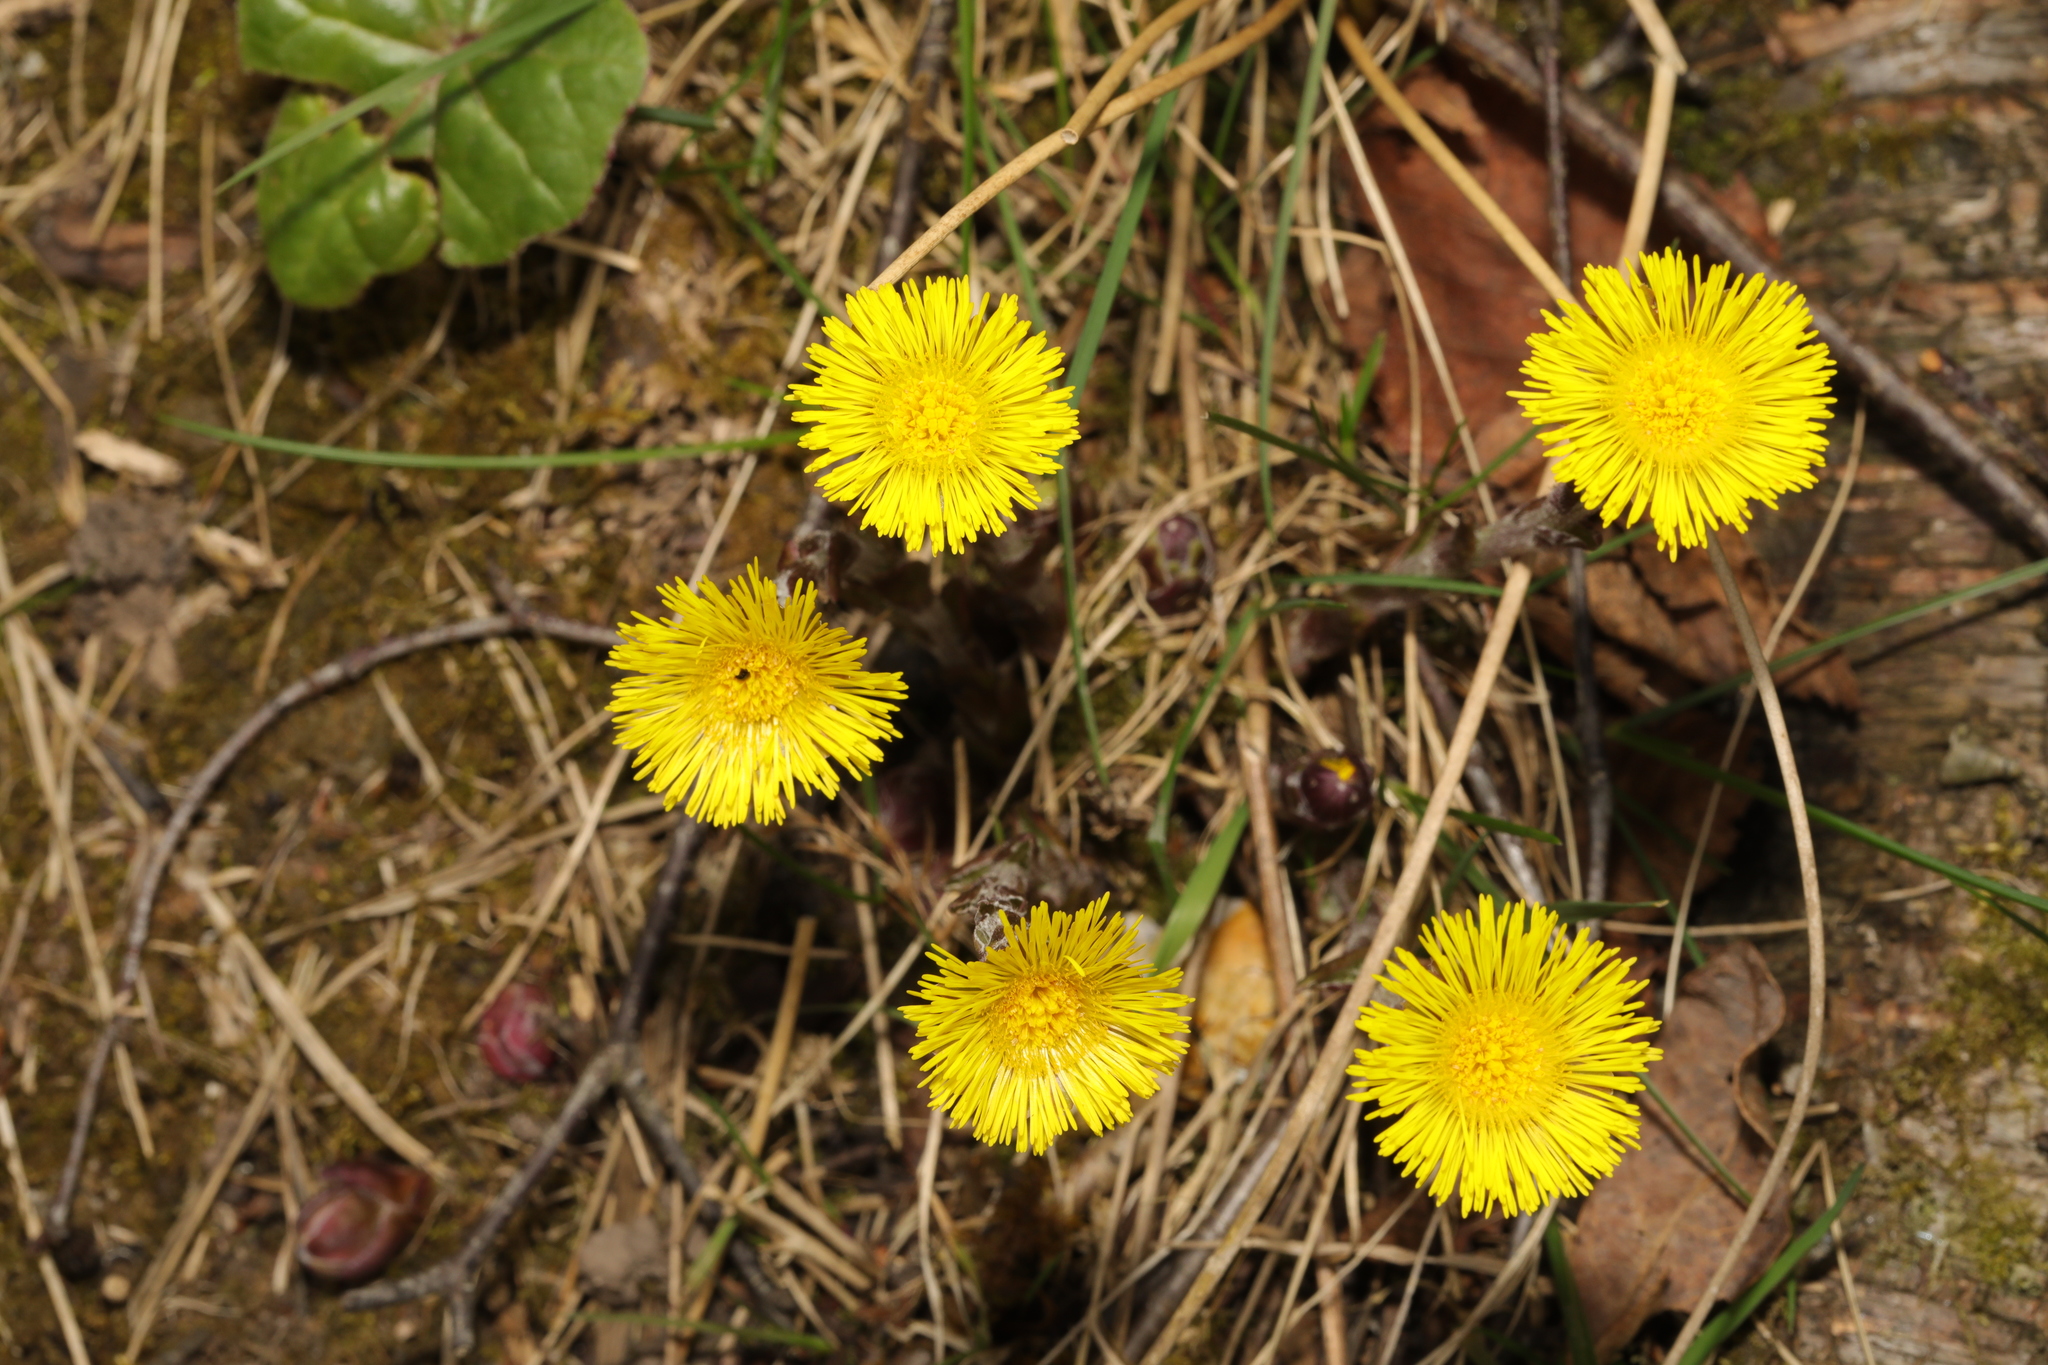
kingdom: Plantae
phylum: Tracheophyta
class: Magnoliopsida
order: Asterales
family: Asteraceae
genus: Tussilago
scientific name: Tussilago farfara
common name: Coltsfoot
